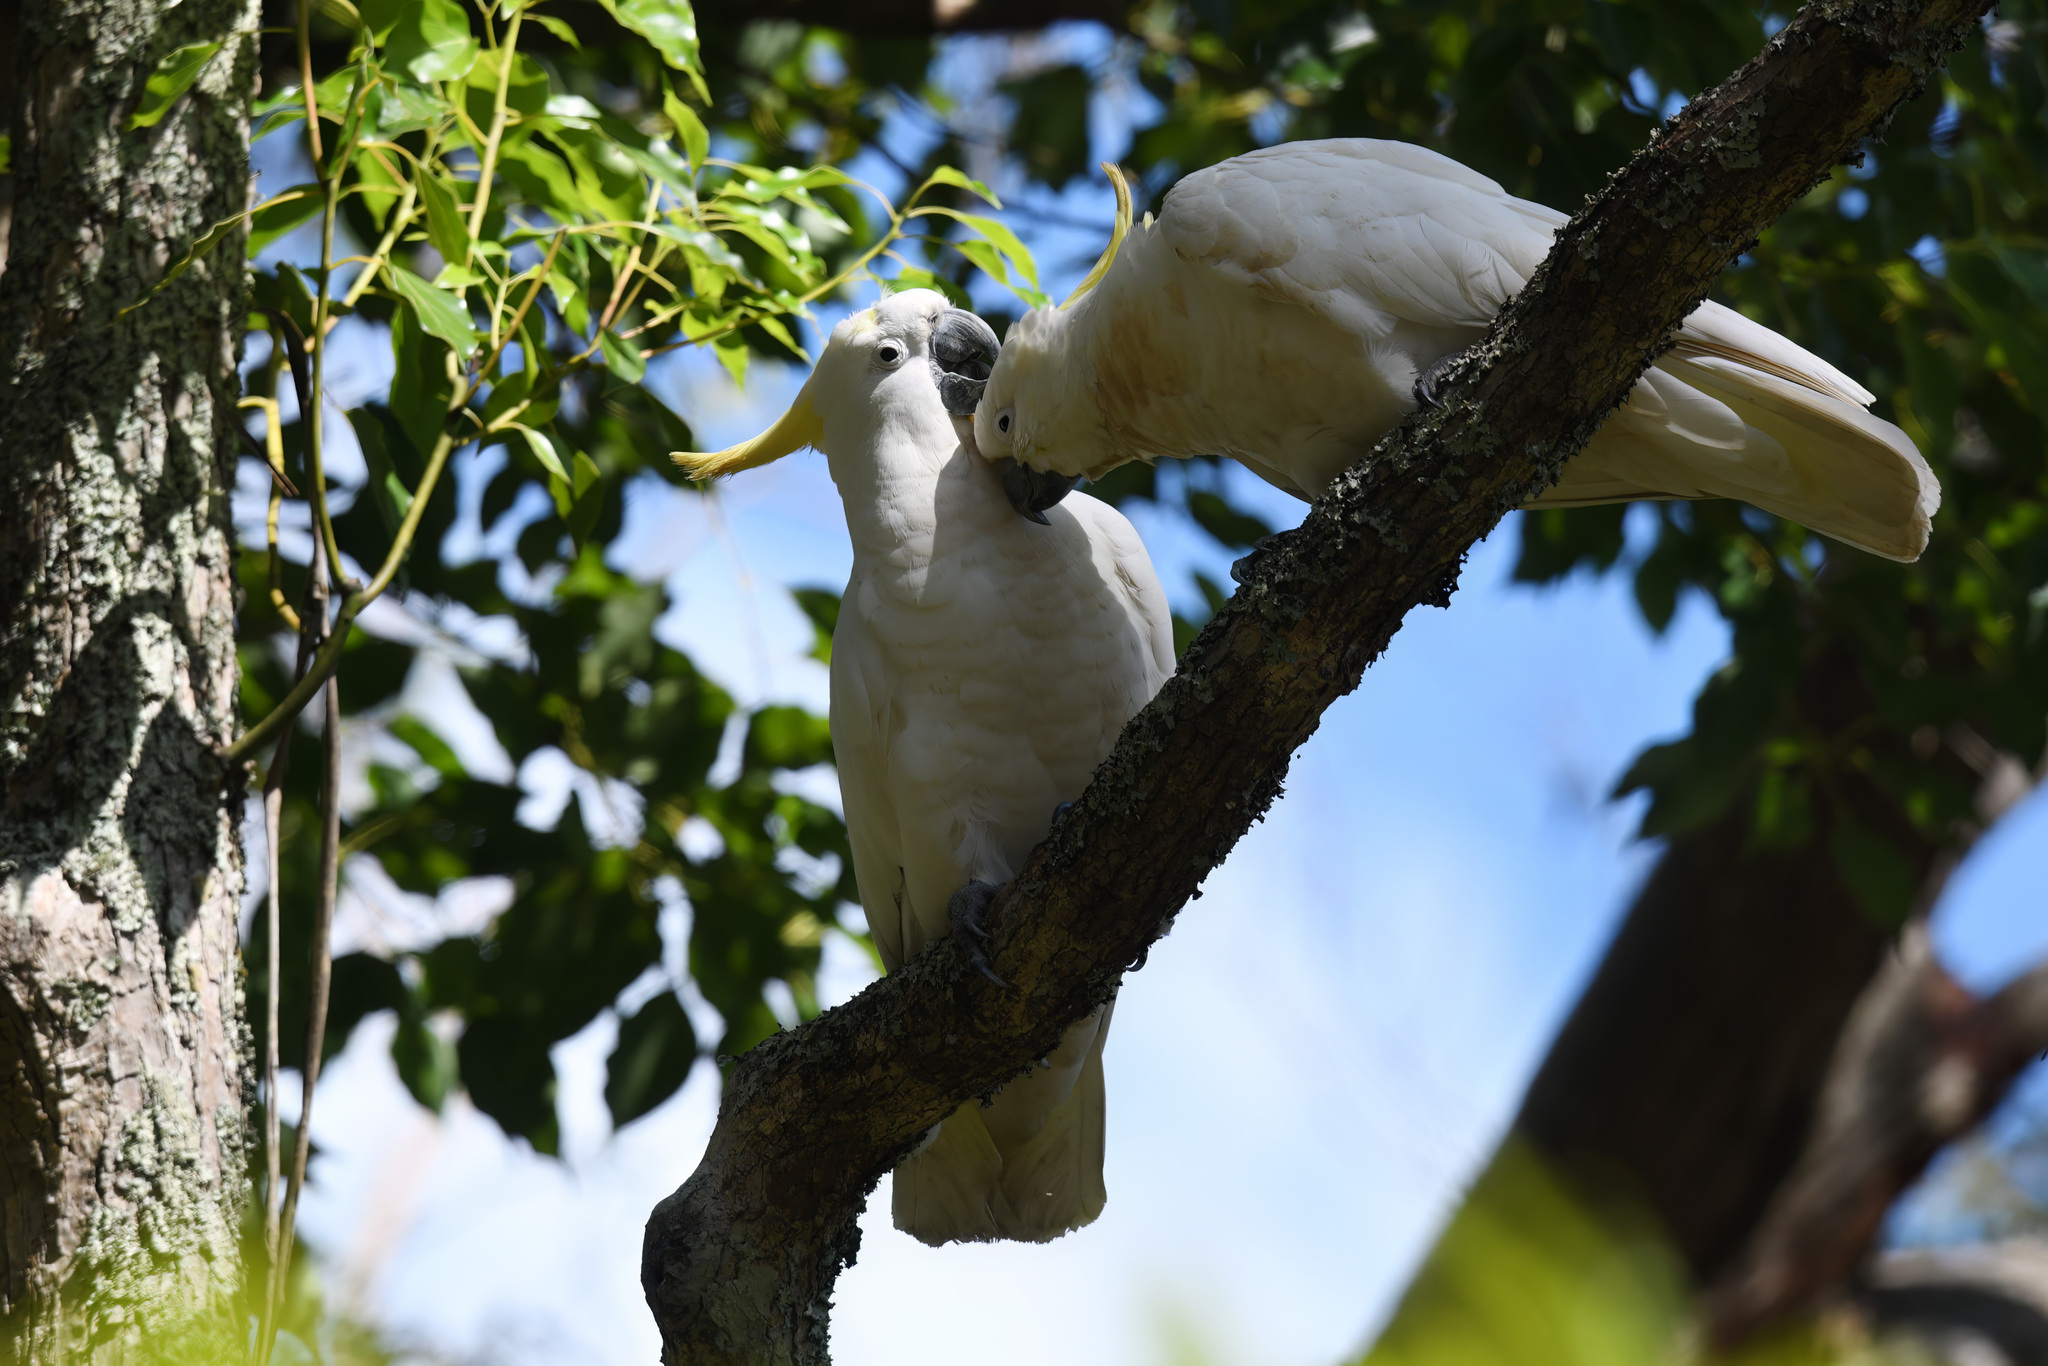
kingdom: Animalia
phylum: Chordata
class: Aves
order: Psittaciformes
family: Psittacidae
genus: Cacatua
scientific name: Cacatua galerita
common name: Sulphur-crested cockatoo
